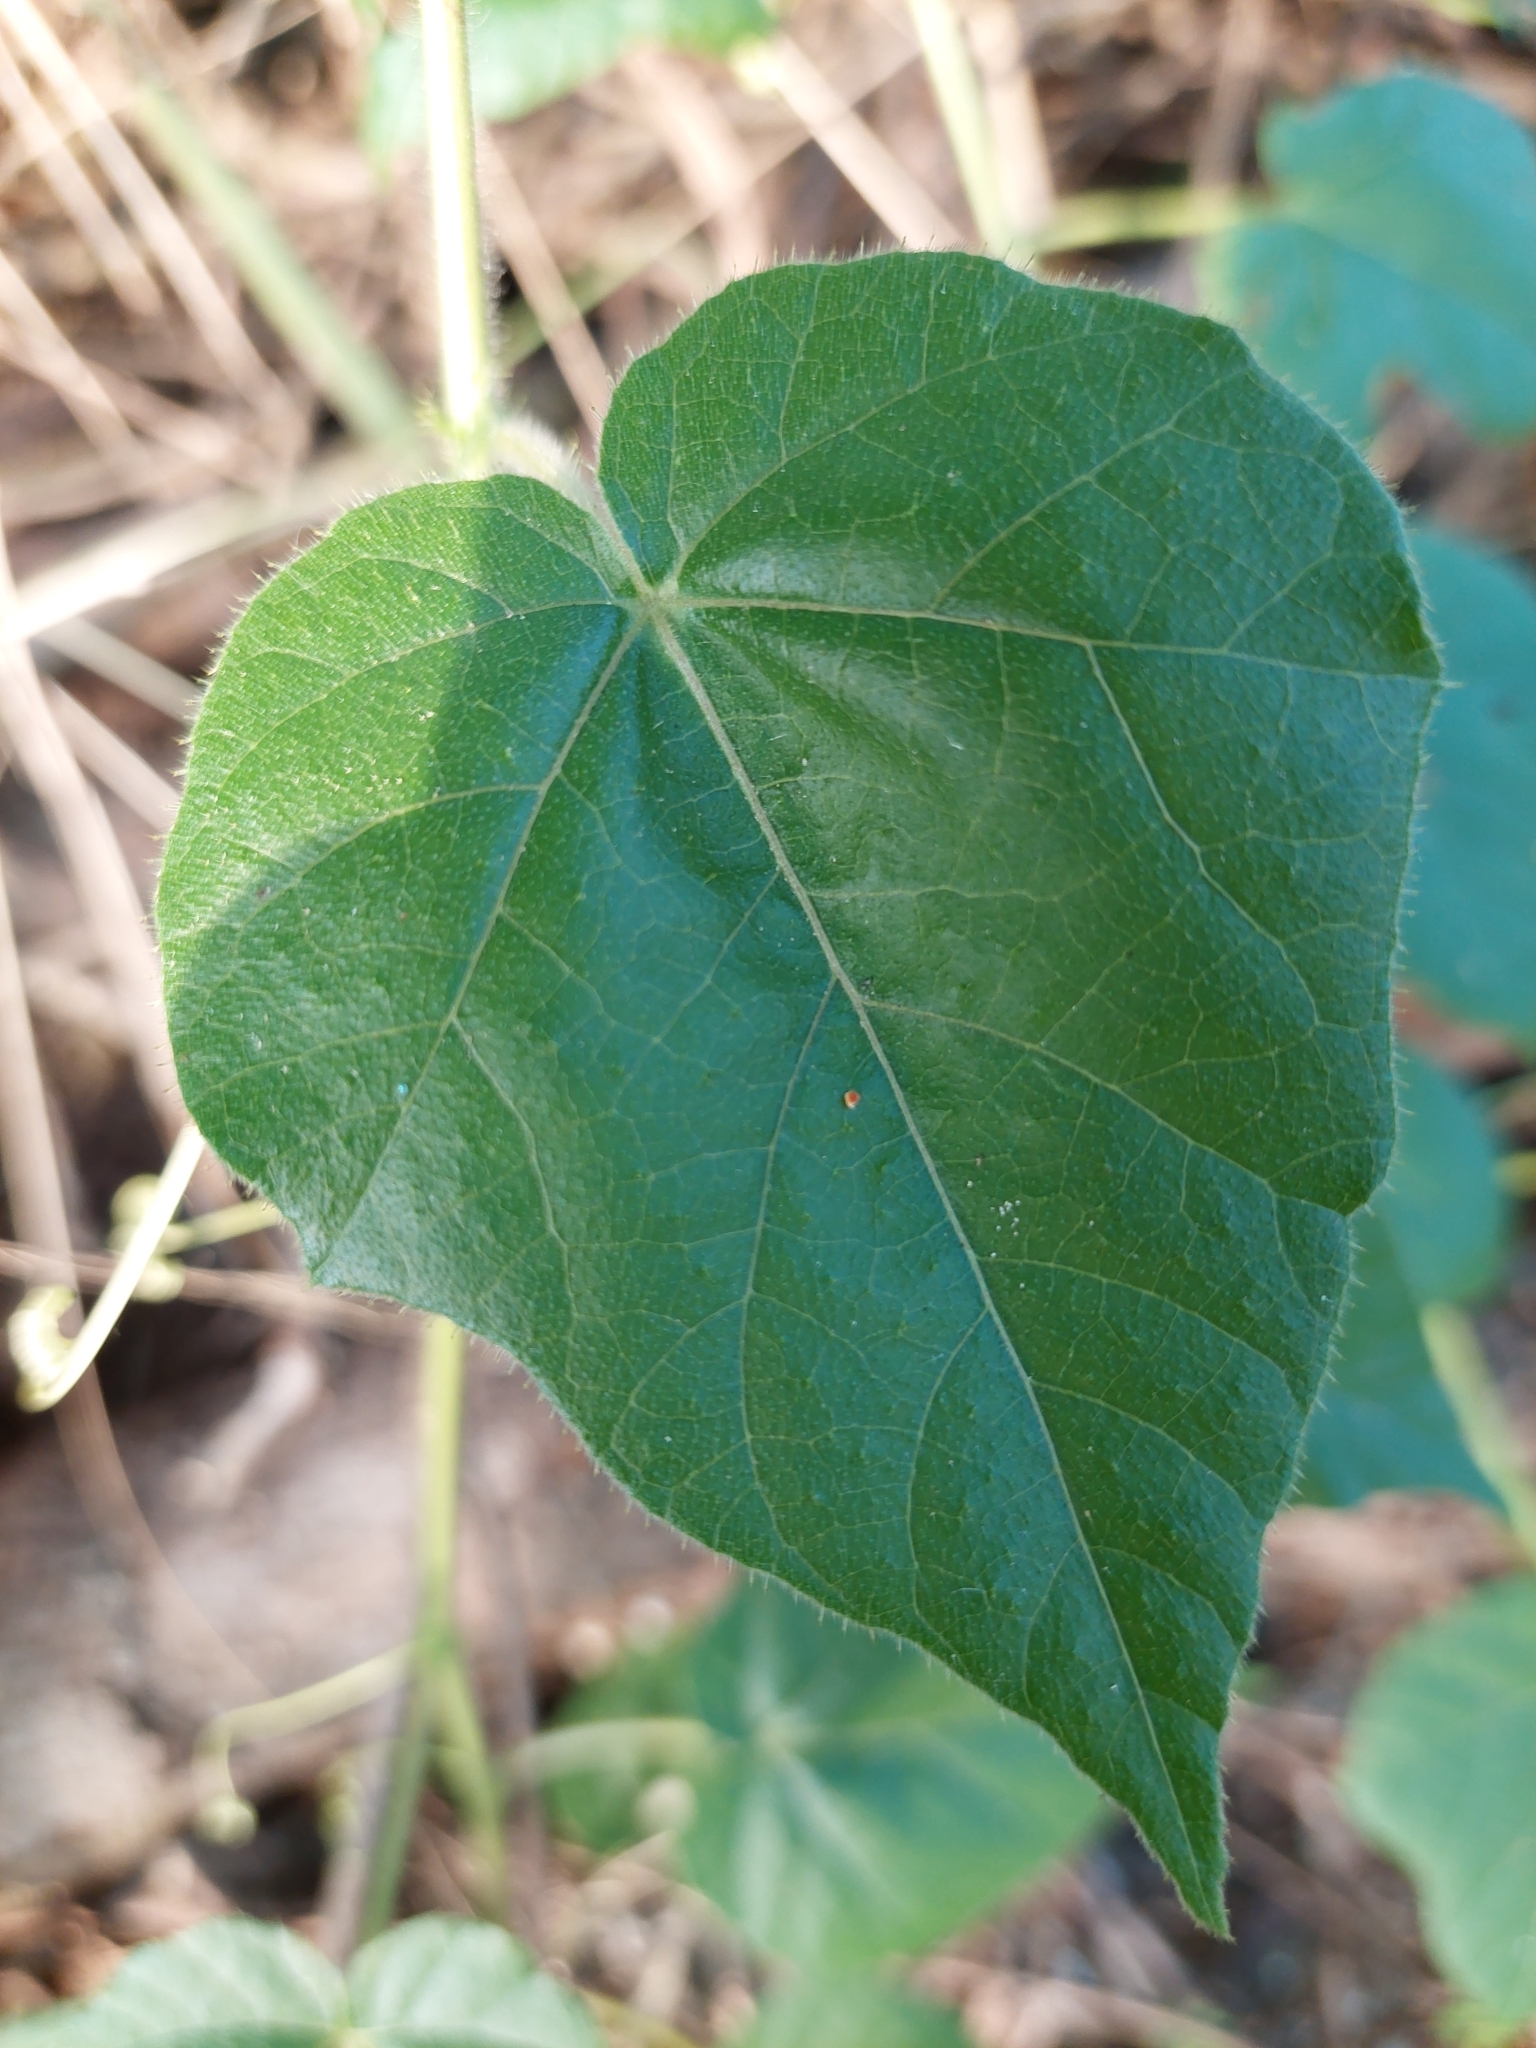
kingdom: Plantae
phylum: Tracheophyta
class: Magnoliopsida
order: Malpighiales
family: Passifloraceae
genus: Passiflora
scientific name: Passiflora vesicaria
